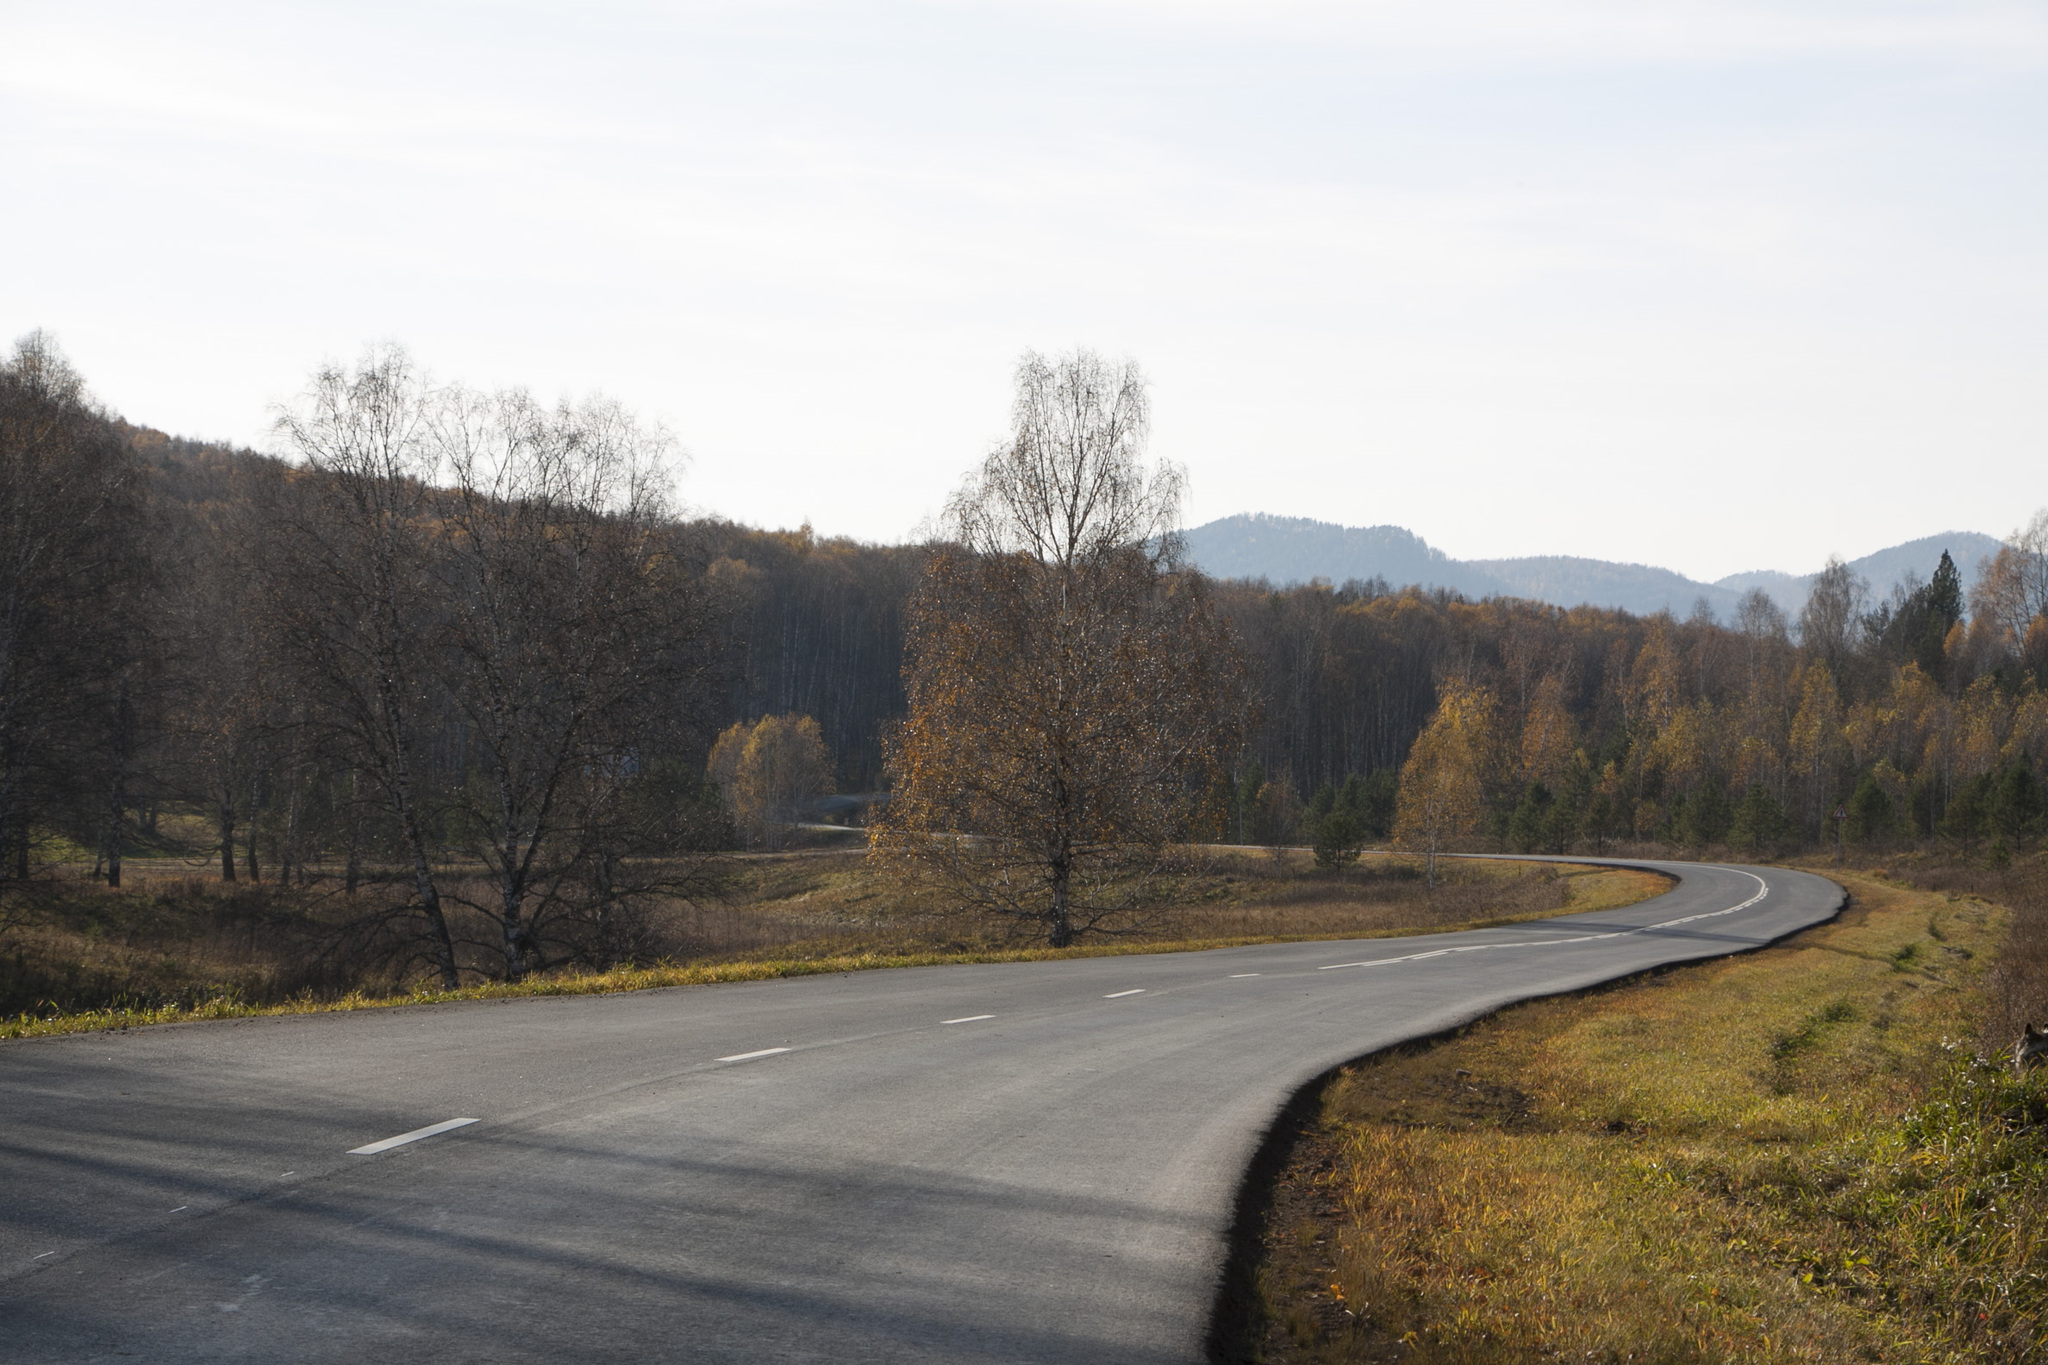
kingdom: Plantae
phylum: Tracheophyta
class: Magnoliopsida
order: Fagales
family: Betulaceae
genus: Betula
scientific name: Betula pendula
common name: Silver birch
